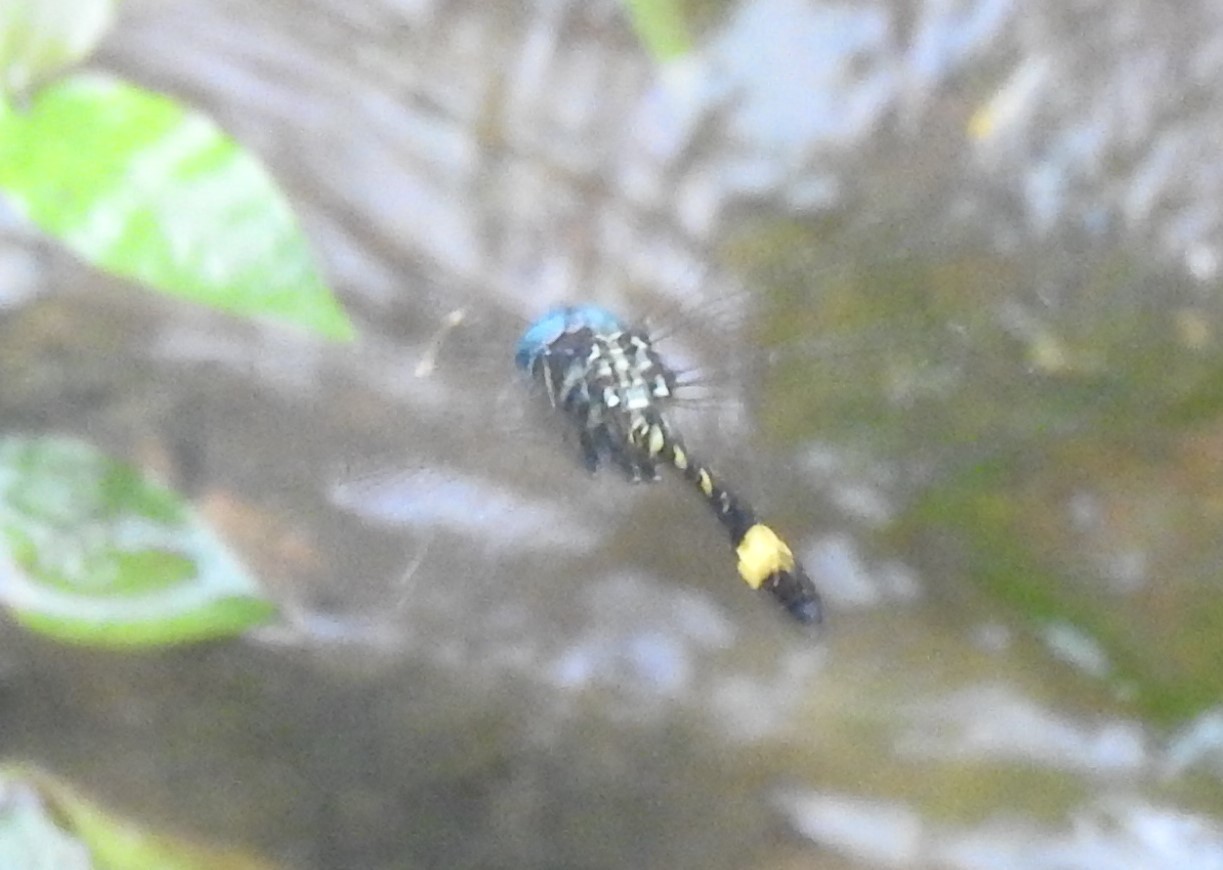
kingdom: Animalia
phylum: Arthropoda
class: Insecta
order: Odonata
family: Libellulidae
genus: Brechmorhoga
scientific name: Brechmorhoga rapax
